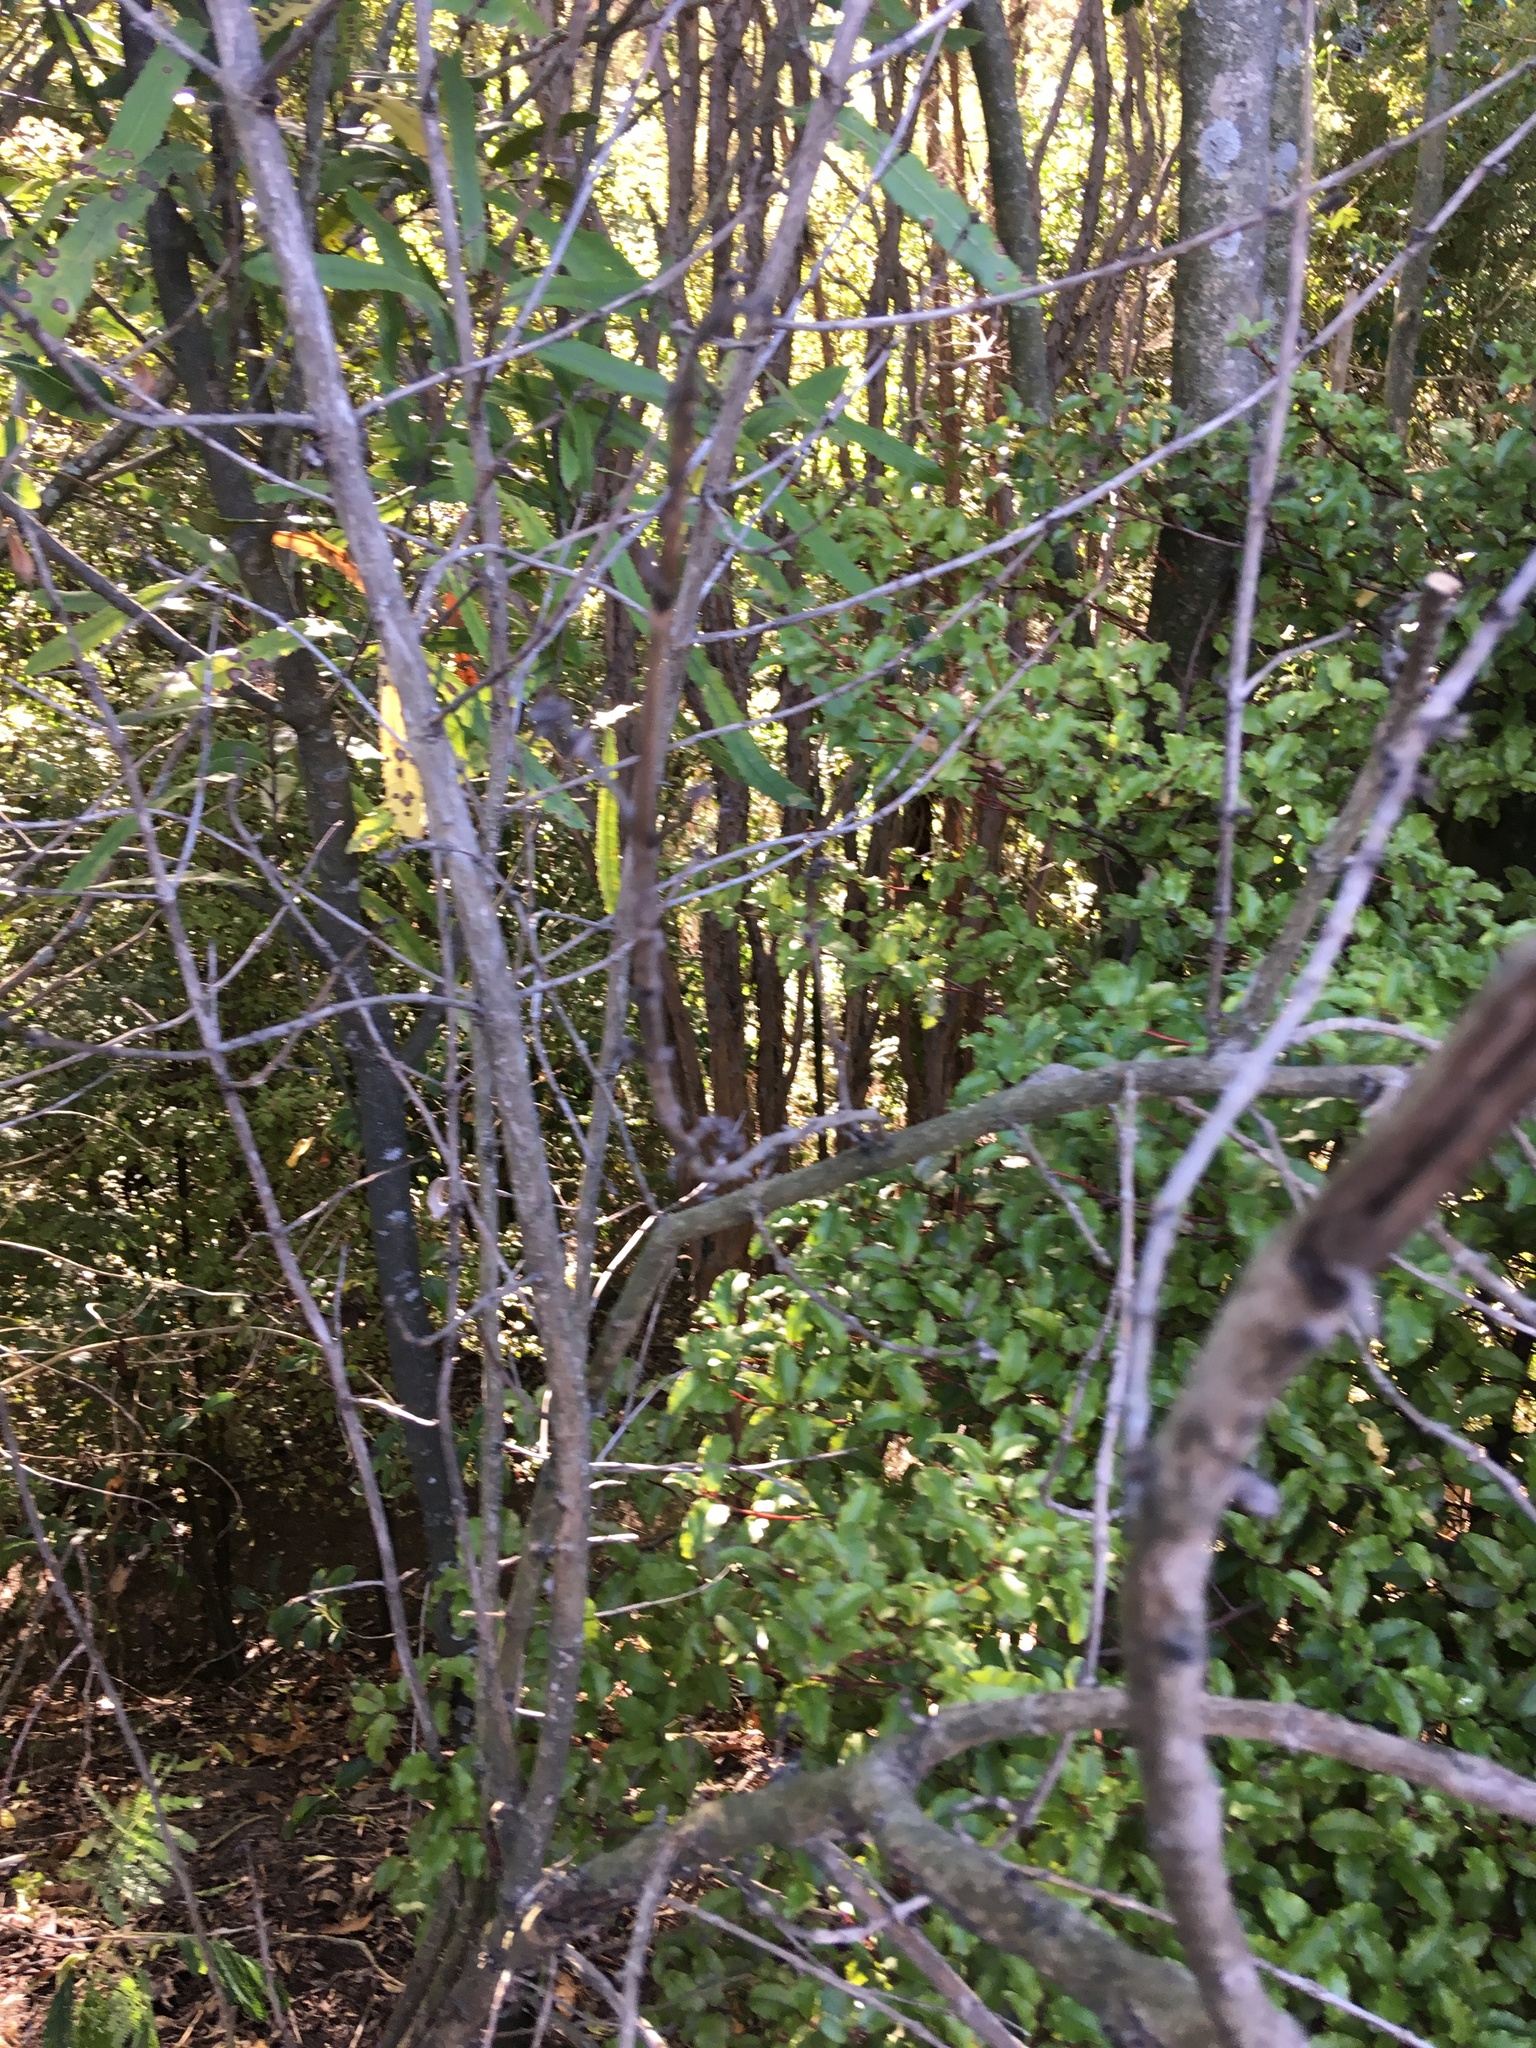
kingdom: Plantae
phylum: Tracheophyta
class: Magnoliopsida
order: Proteales
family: Proteaceae
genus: Knightia
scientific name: Knightia excelsa
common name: New zealand-honeysuckle
